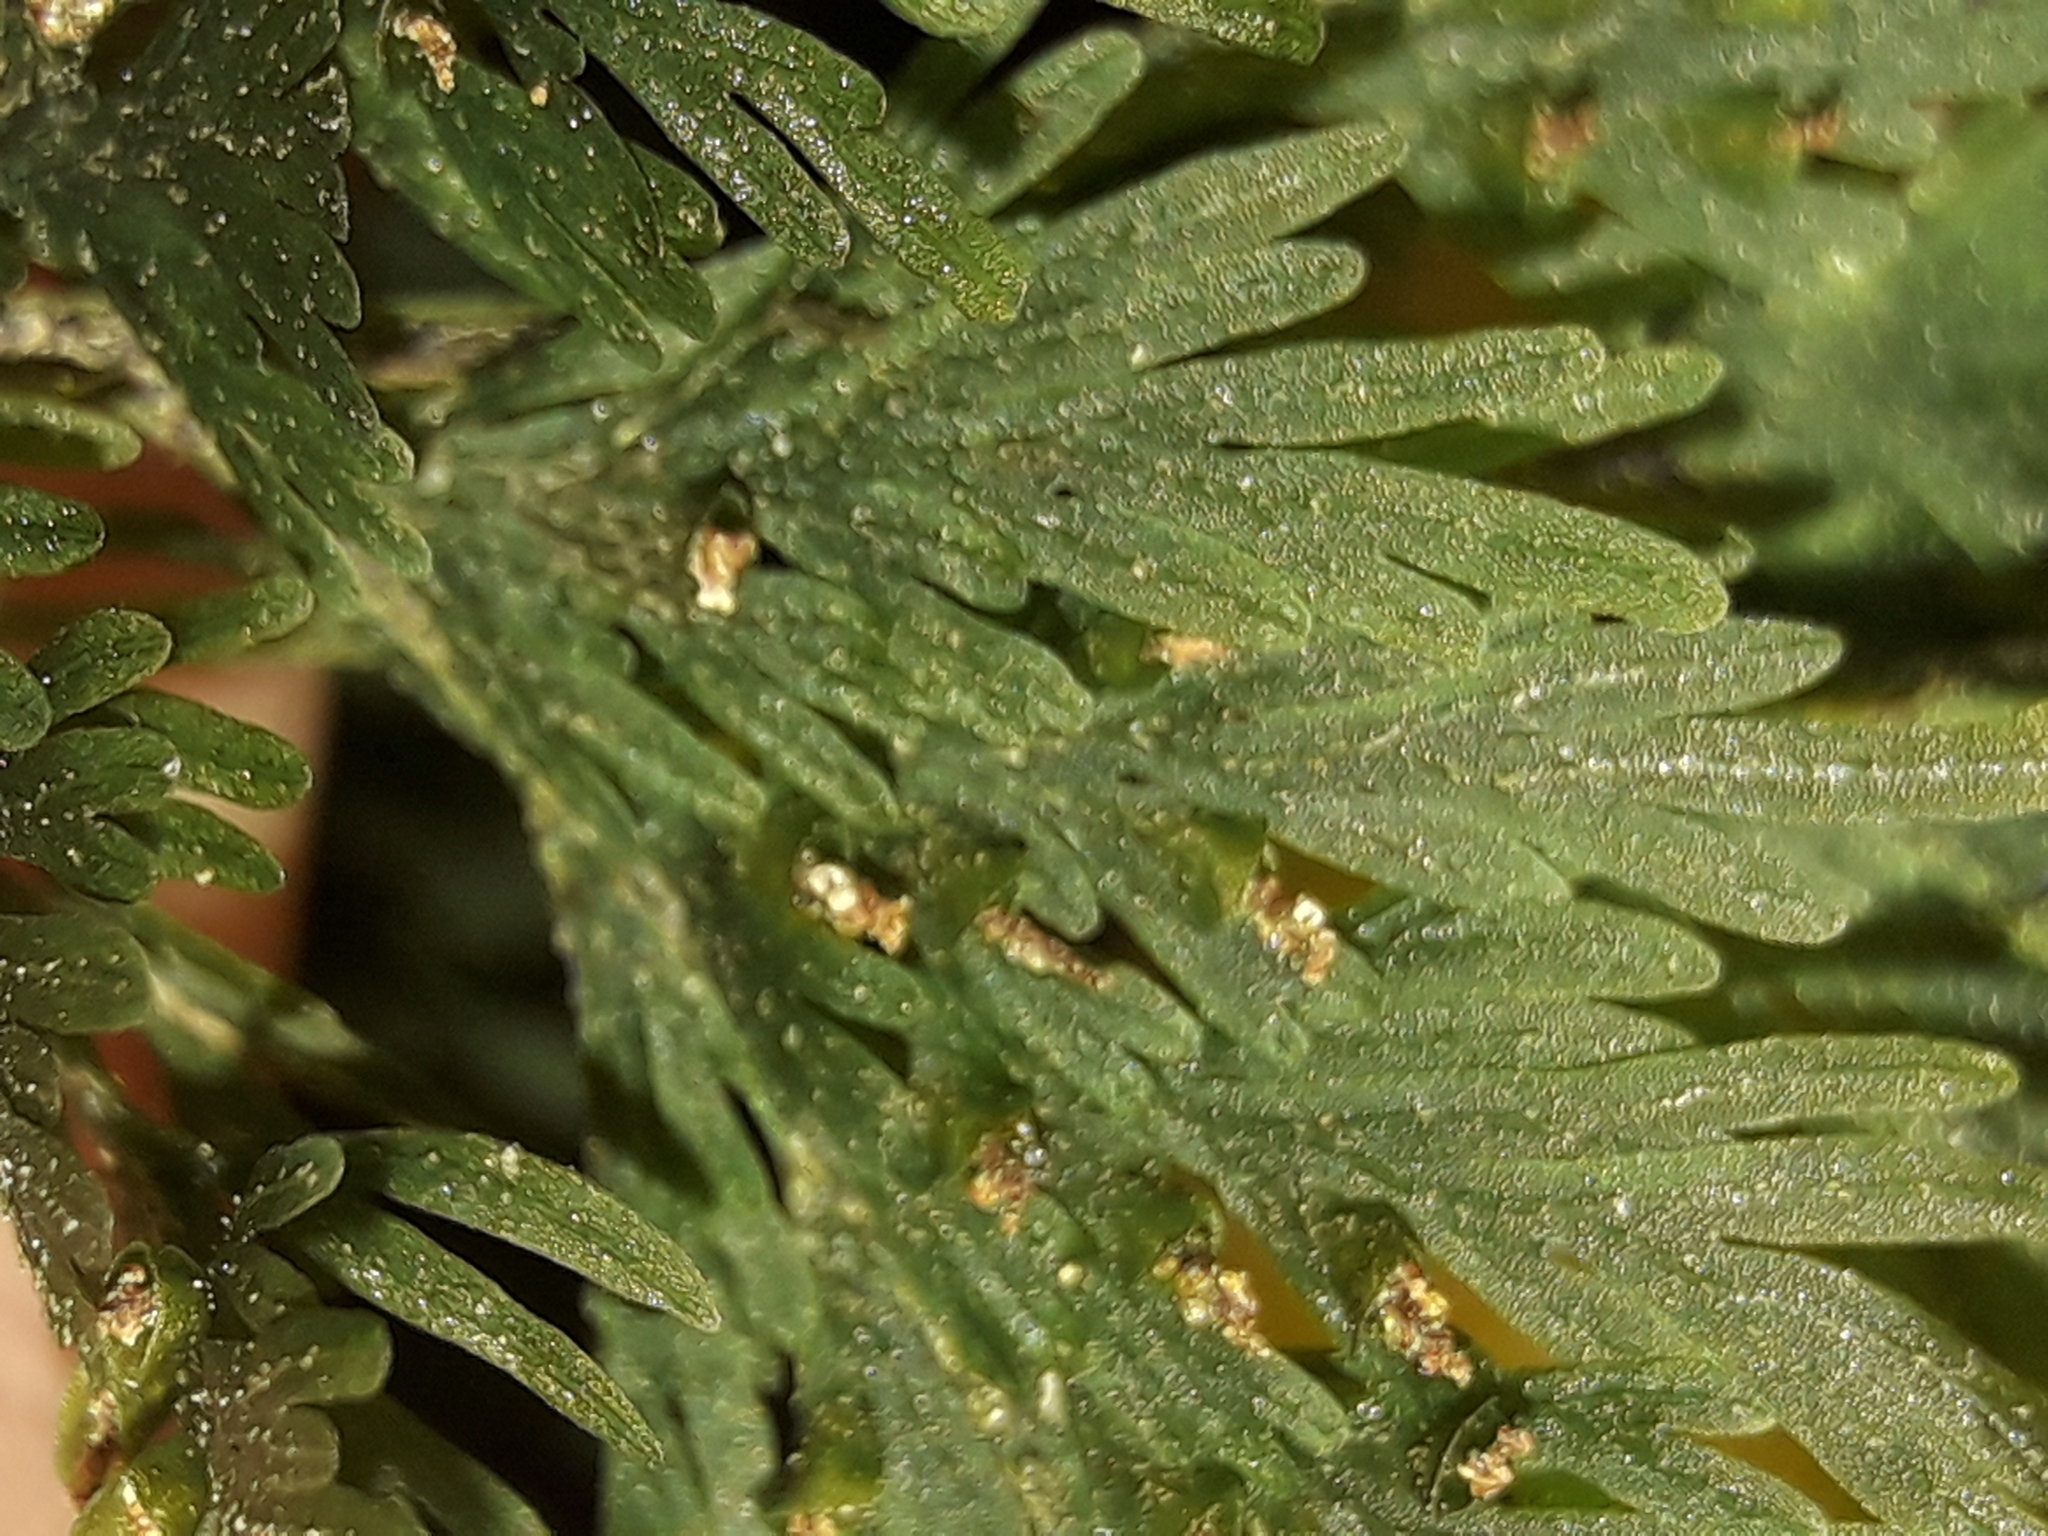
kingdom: Plantae
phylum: Tracheophyta
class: Polypodiopsida
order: Hymenophyllales
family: Hymenophyllaceae
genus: Callistopteris
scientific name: Callistopteris baueriana
